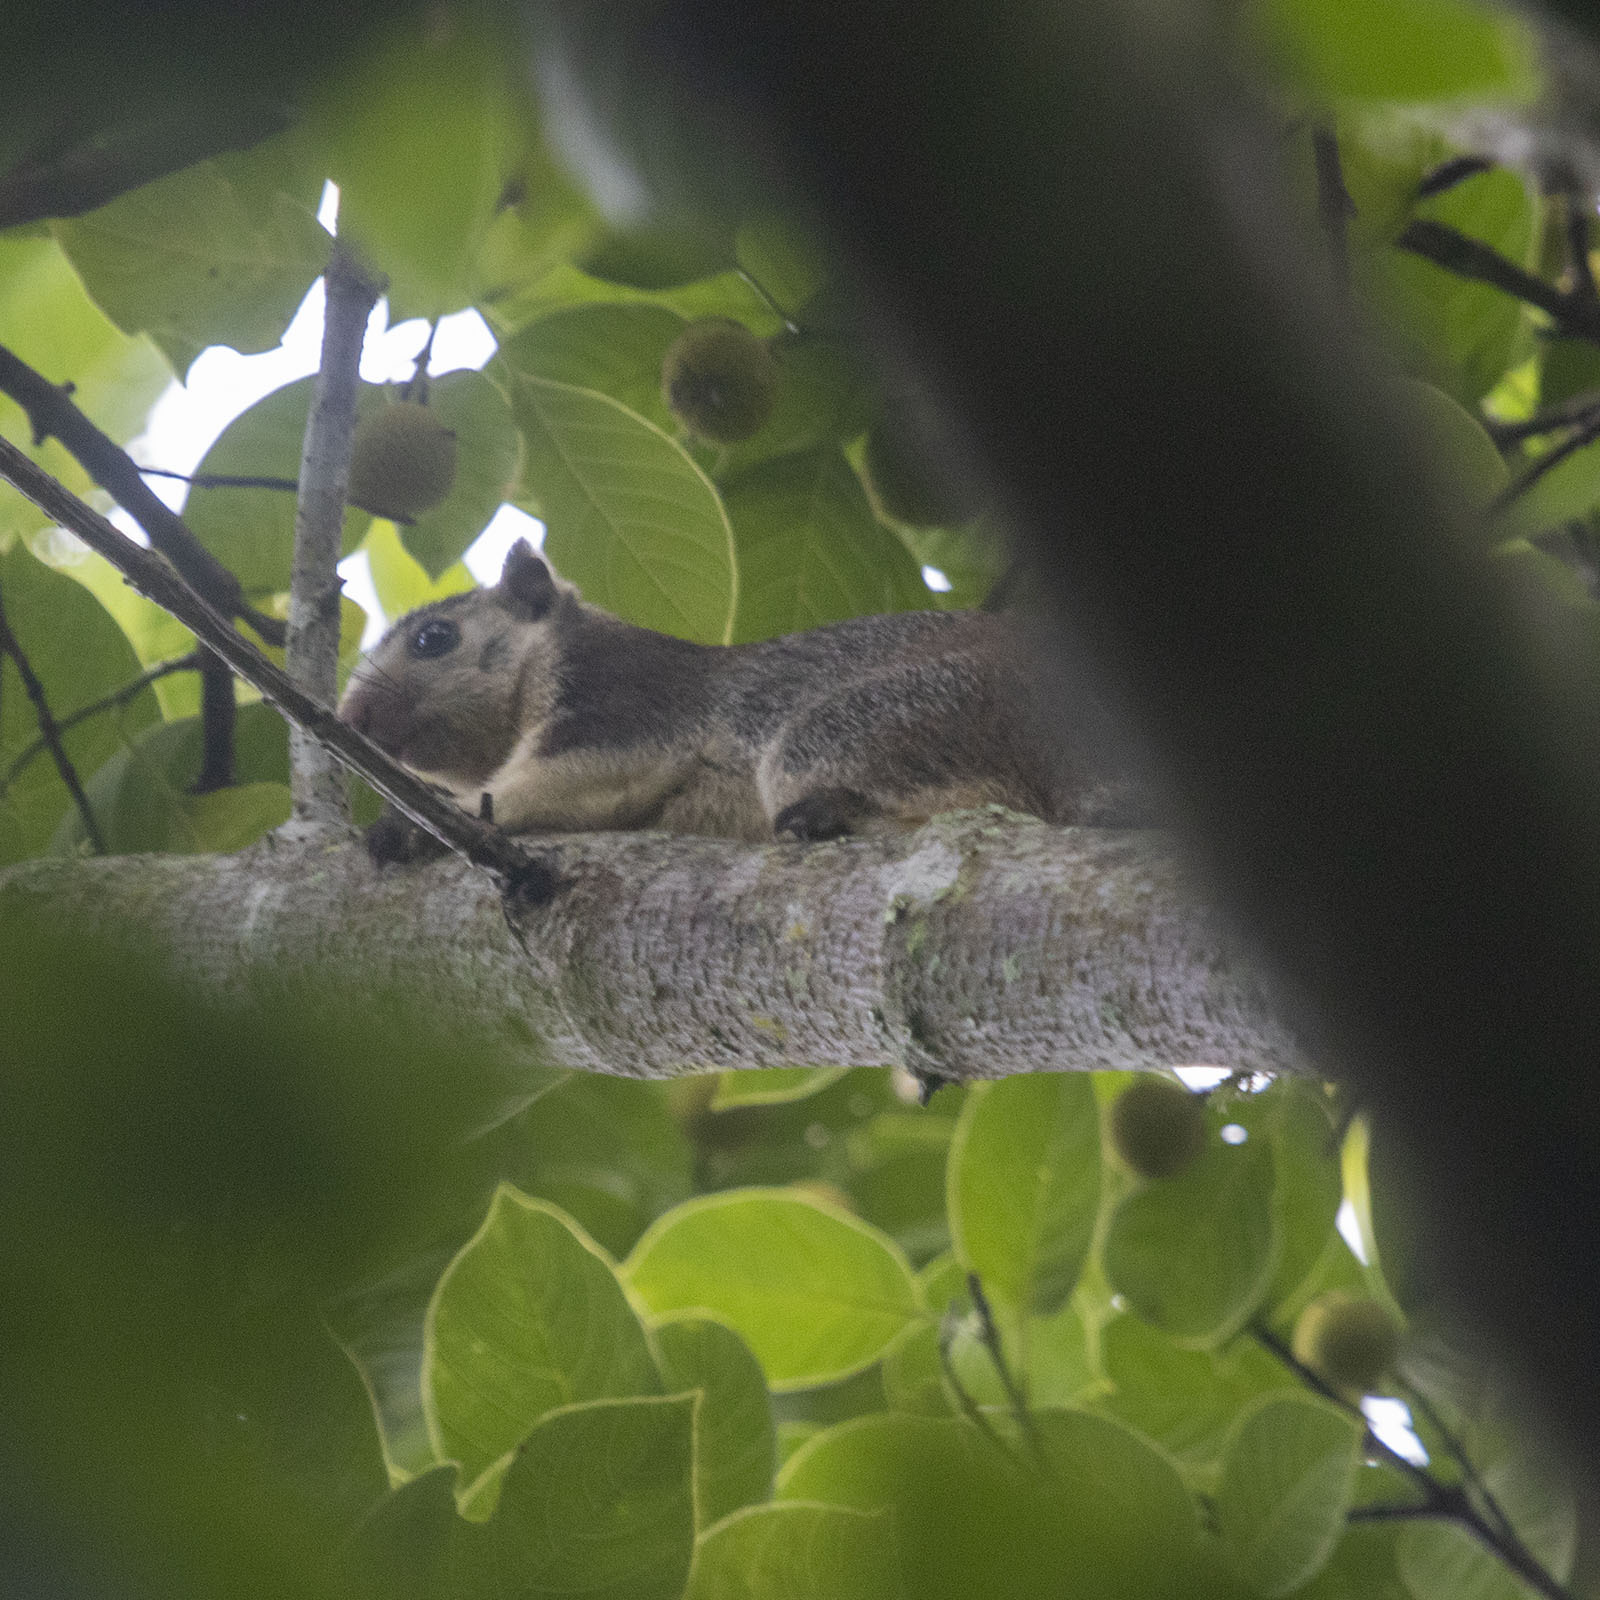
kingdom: Animalia
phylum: Chordata
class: Mammalia
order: Rodentia
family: Sciuridae
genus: Ratufa
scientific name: Ratufa macroura
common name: Sri lankan giant squirrel
